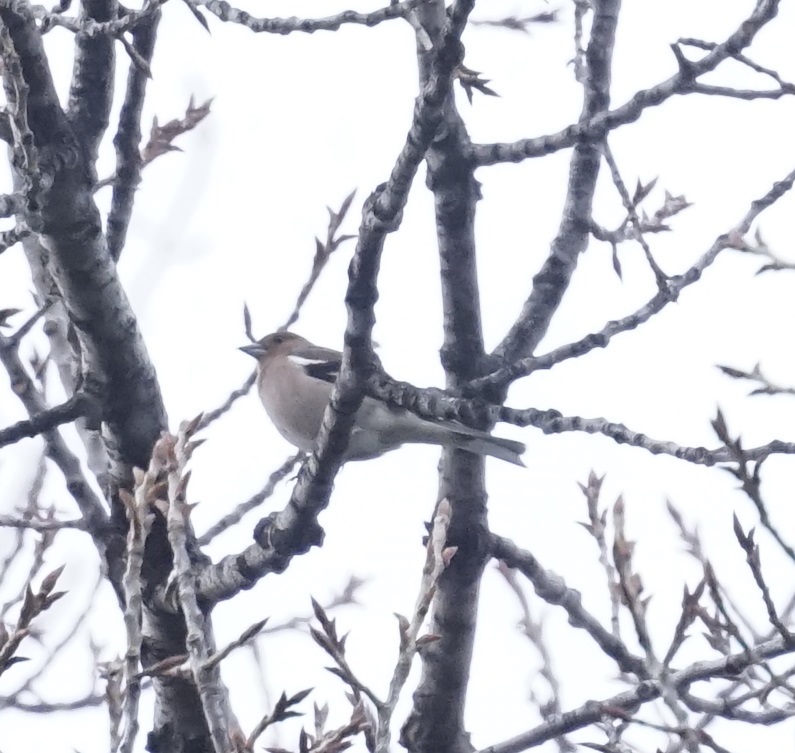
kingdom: Animalia
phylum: Chordata
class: Aves
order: Passeriformes
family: Fringillidae
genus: Fringilla
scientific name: Fringilla coelebs
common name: Common chaffinch
